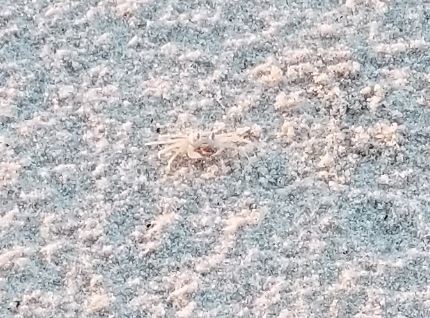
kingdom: Animalia
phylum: Arthropoda
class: Malacostraca
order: Decapoda
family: Ocypodidae
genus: Ocypode
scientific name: Ocypode quadrata
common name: Ghost crab
